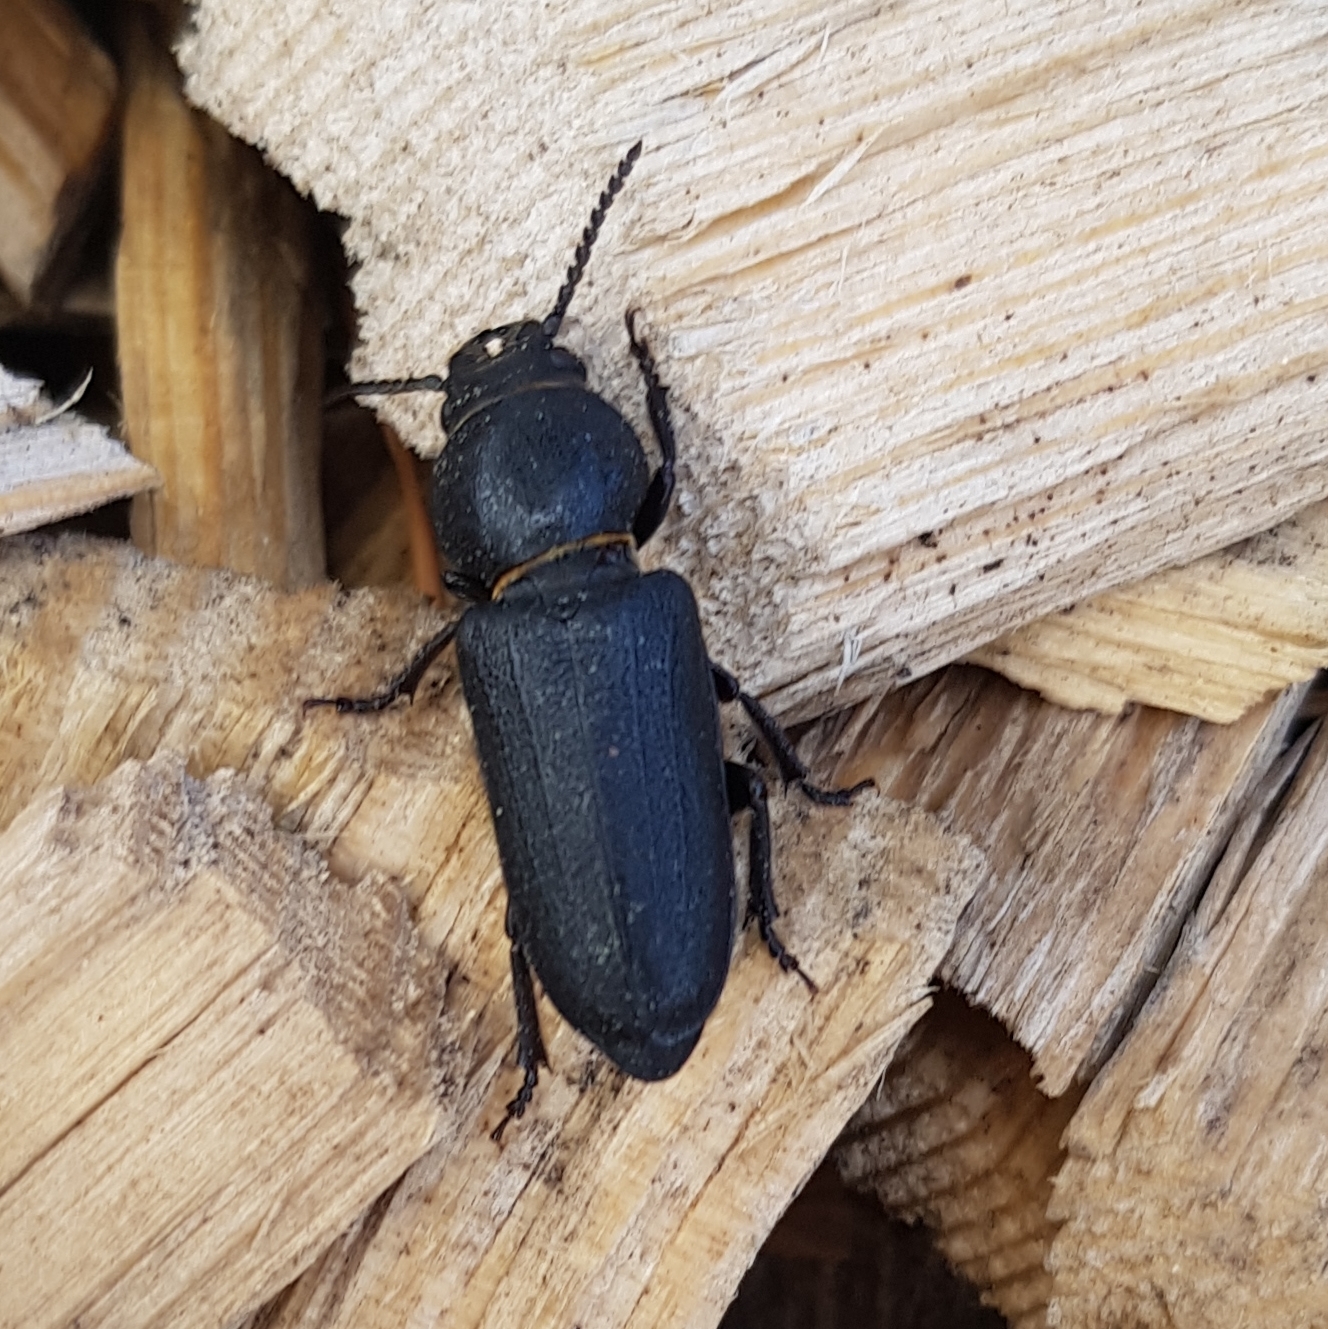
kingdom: Animalia
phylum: Arthropoda
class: Insecta
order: Coleoptera
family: Cerambycidae
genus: Spondylis
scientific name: Spondylis buprestoides
